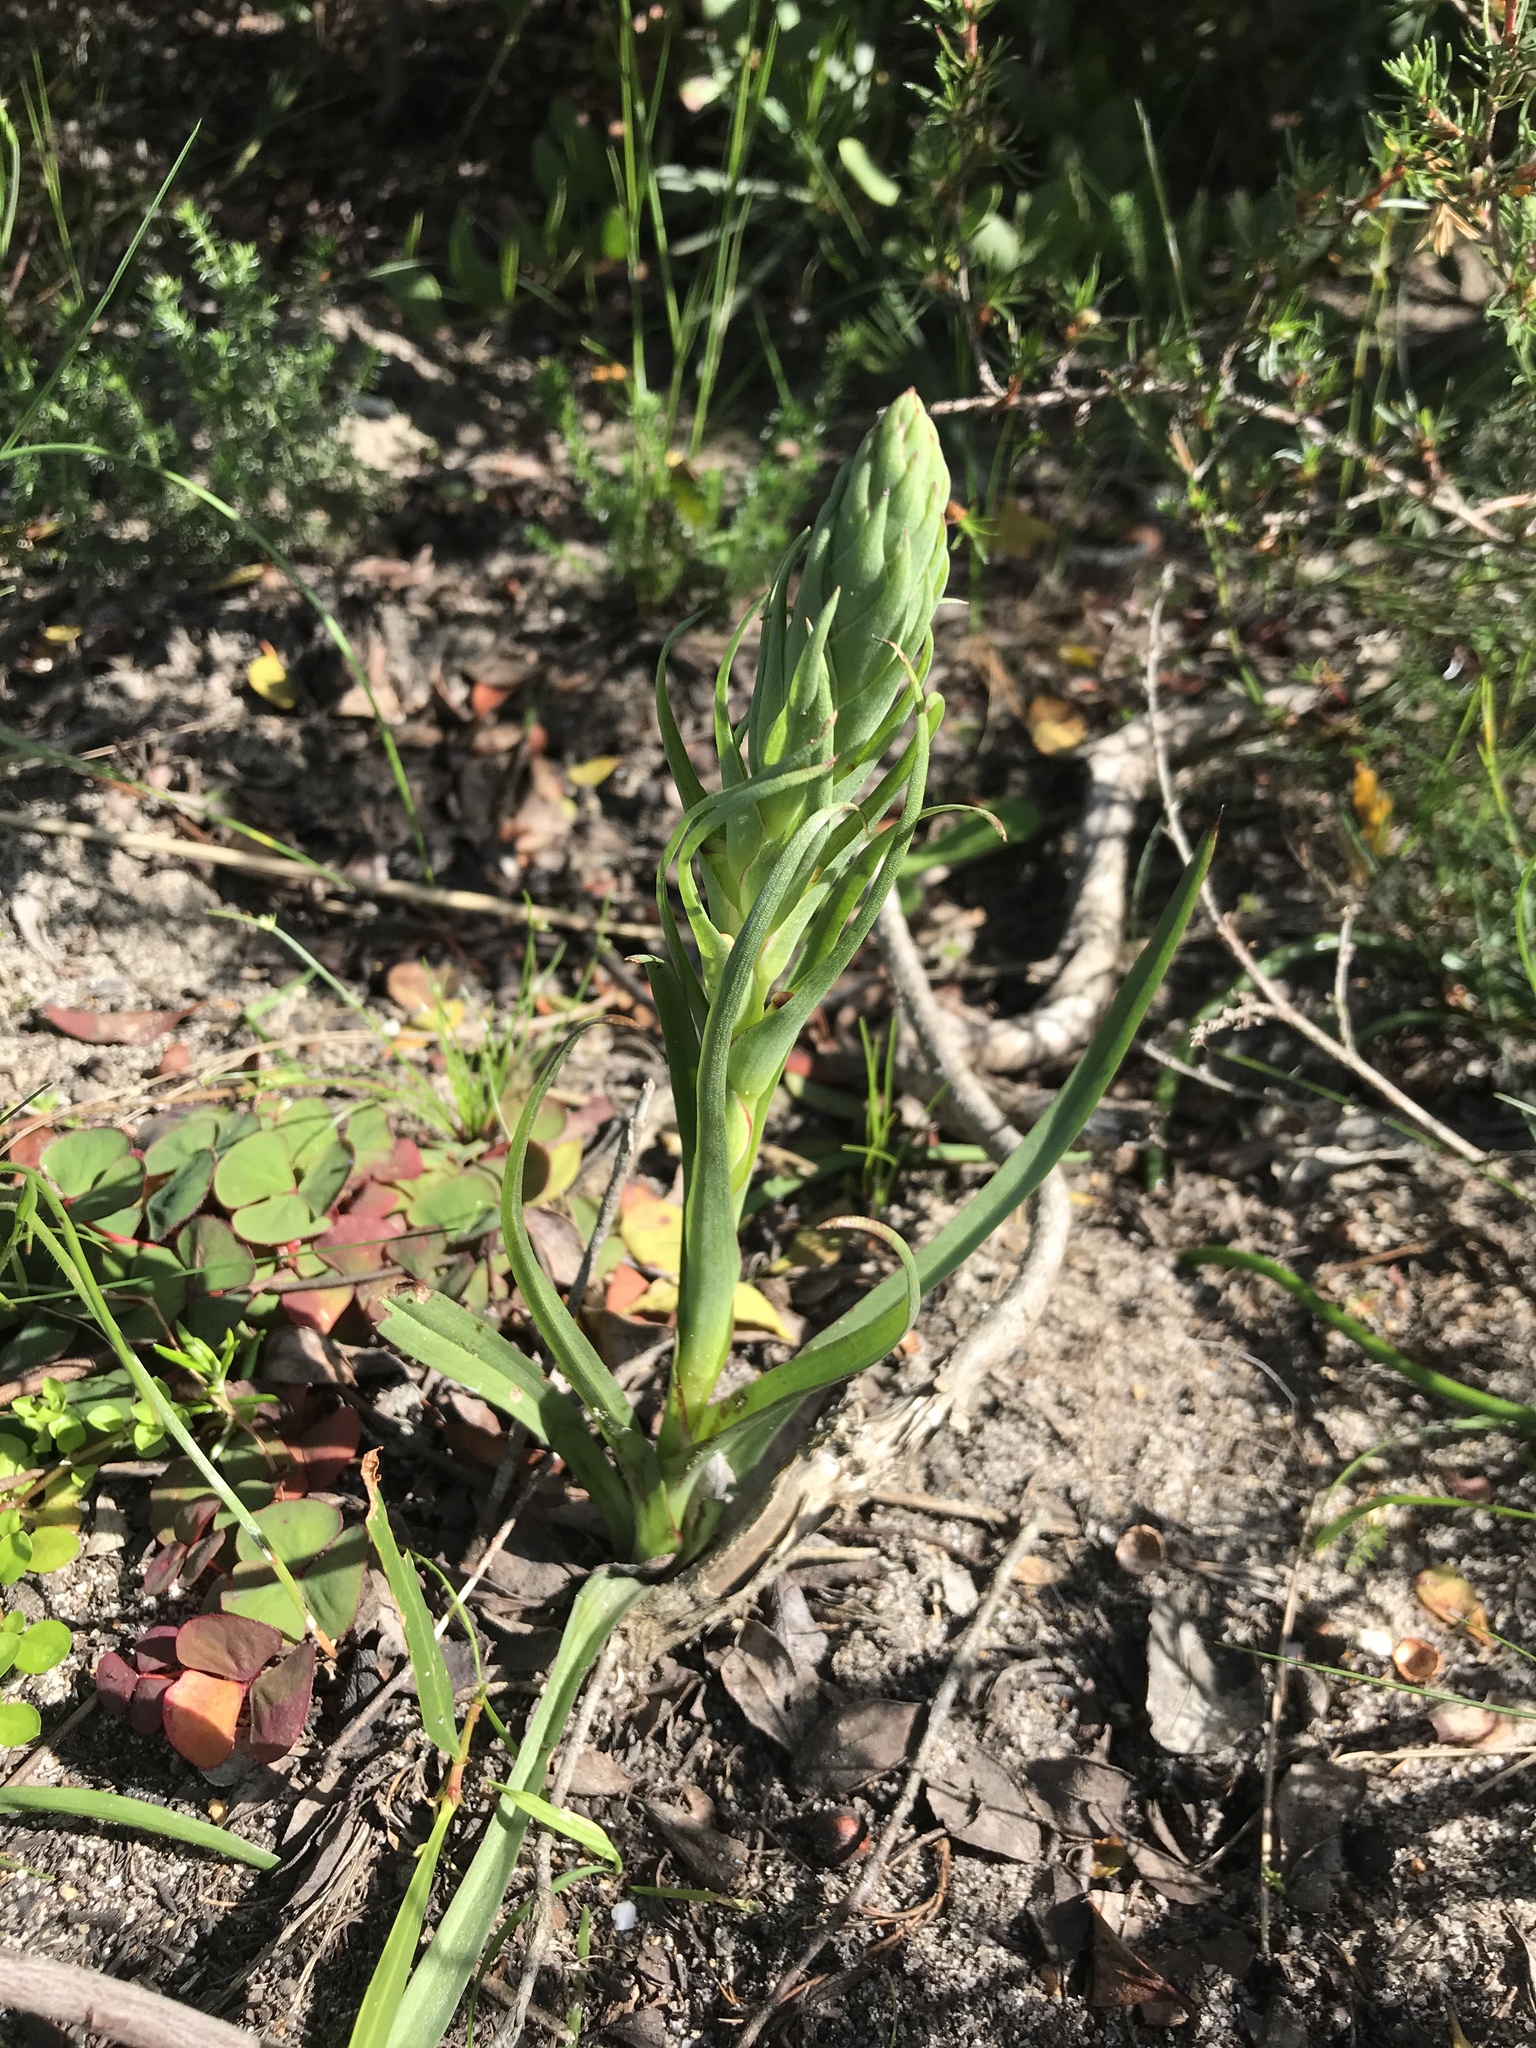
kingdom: Plantae
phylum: Tracheophyta
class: Liliopsida
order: Asparagales
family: Orchidaceae
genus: Disa
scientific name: Disa bracteata
